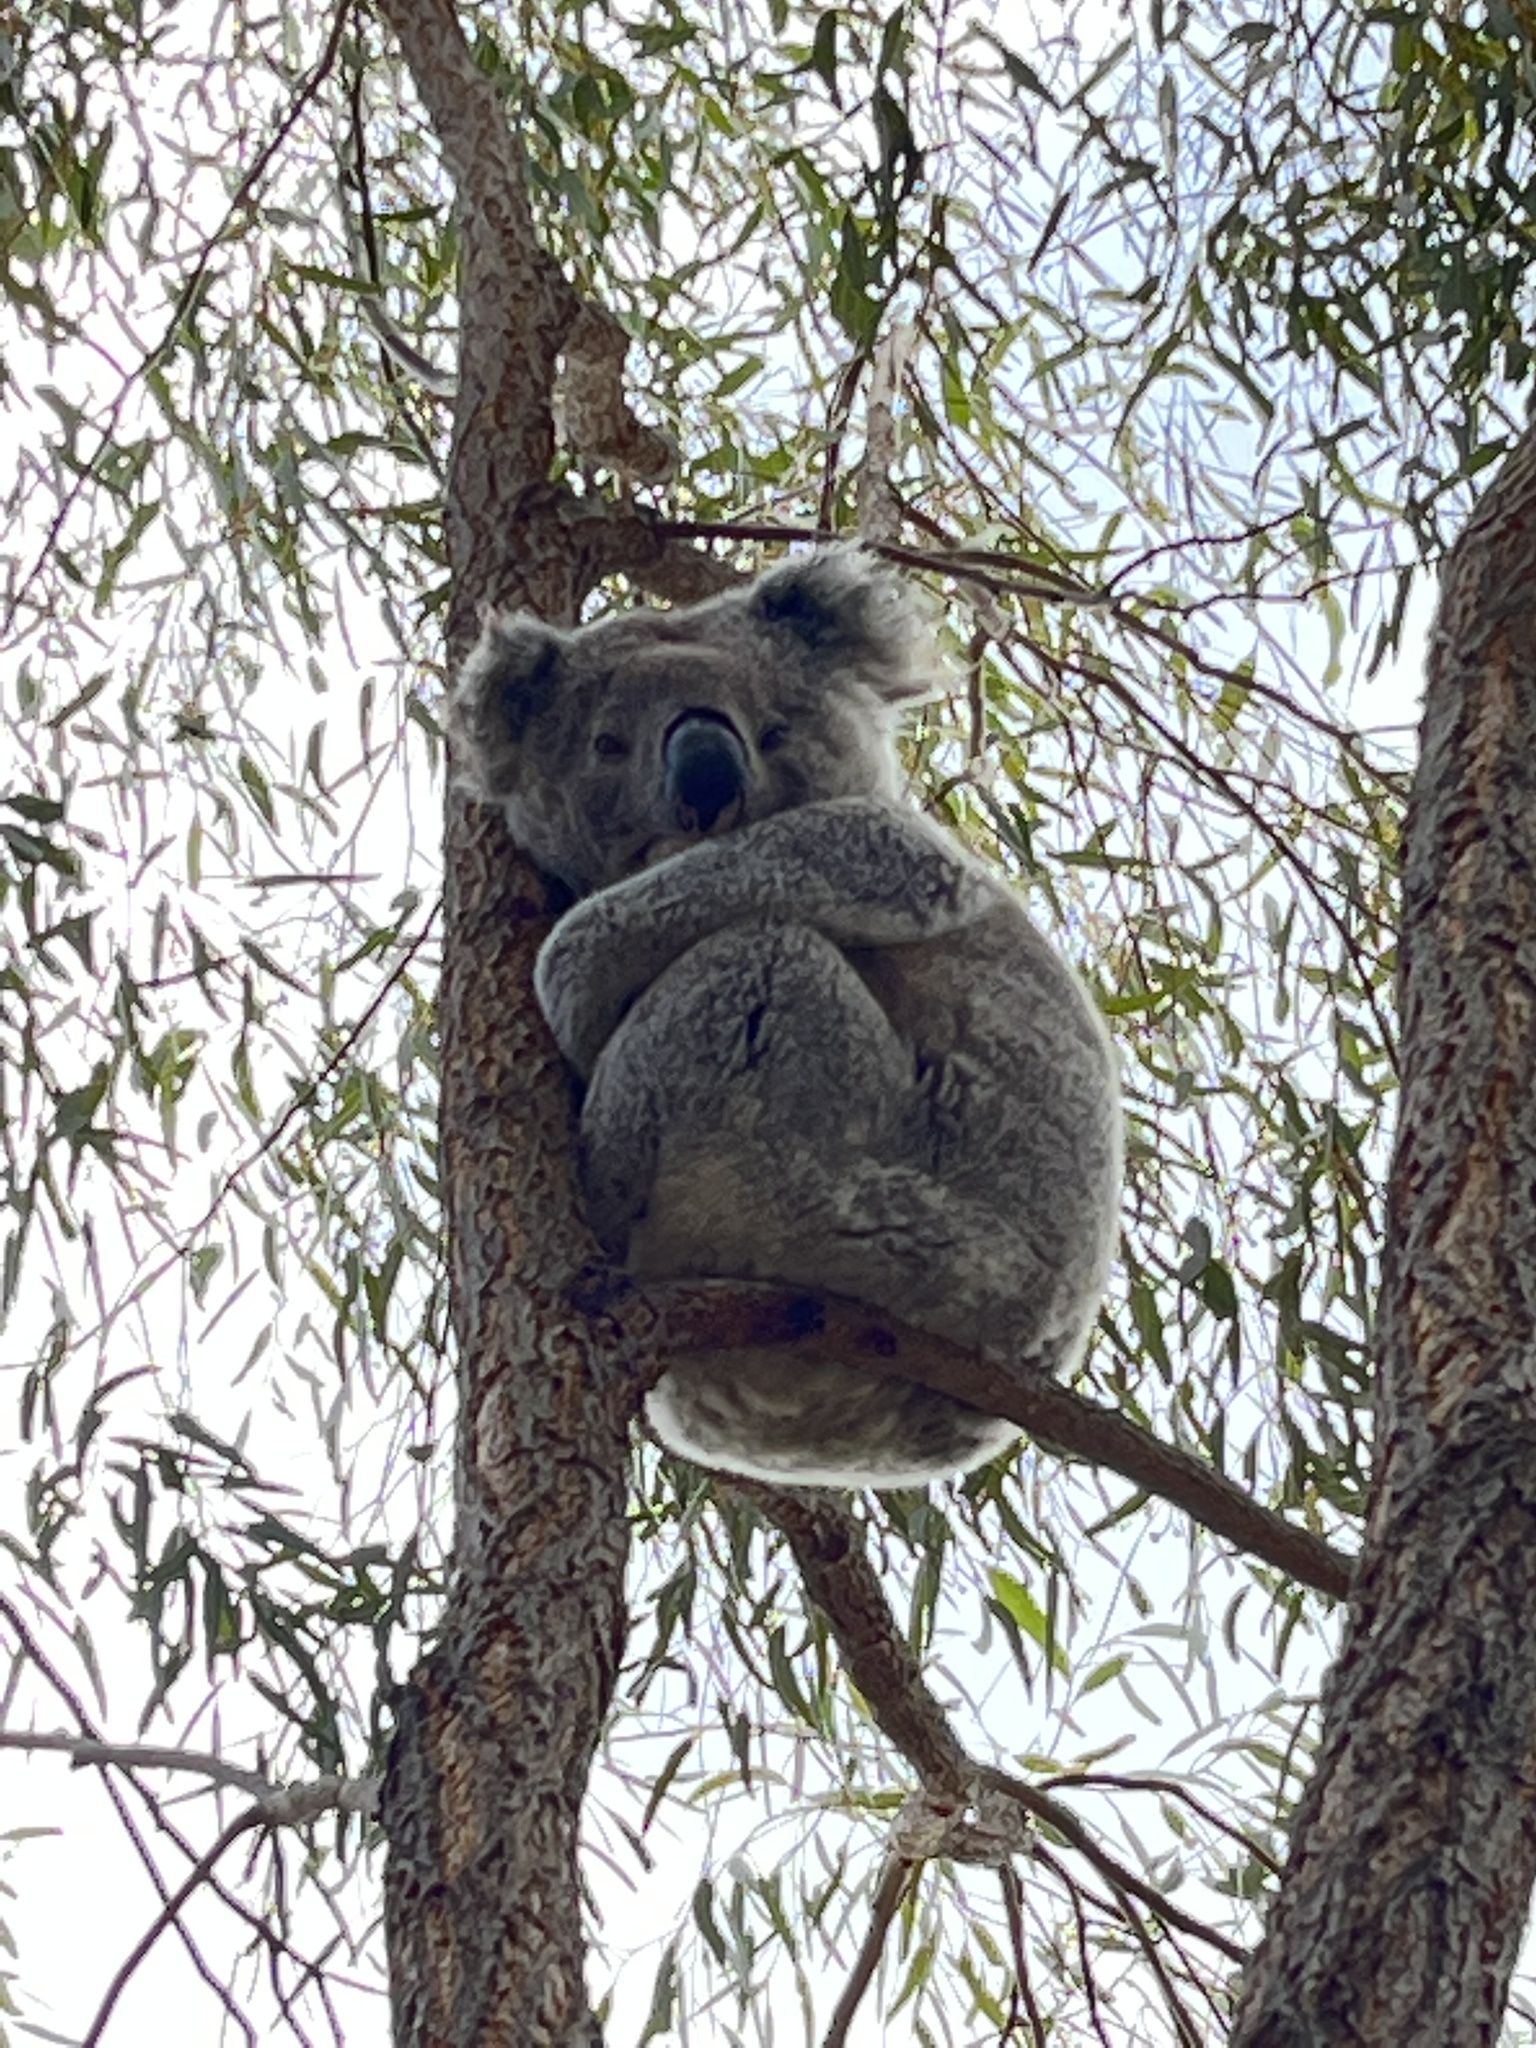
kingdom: Animalia
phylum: Chordata
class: Mammalia
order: Diprotodontia
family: Phascolarctidae
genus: Phascolarctos
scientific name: Phascolarctos cinereus
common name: Koala
